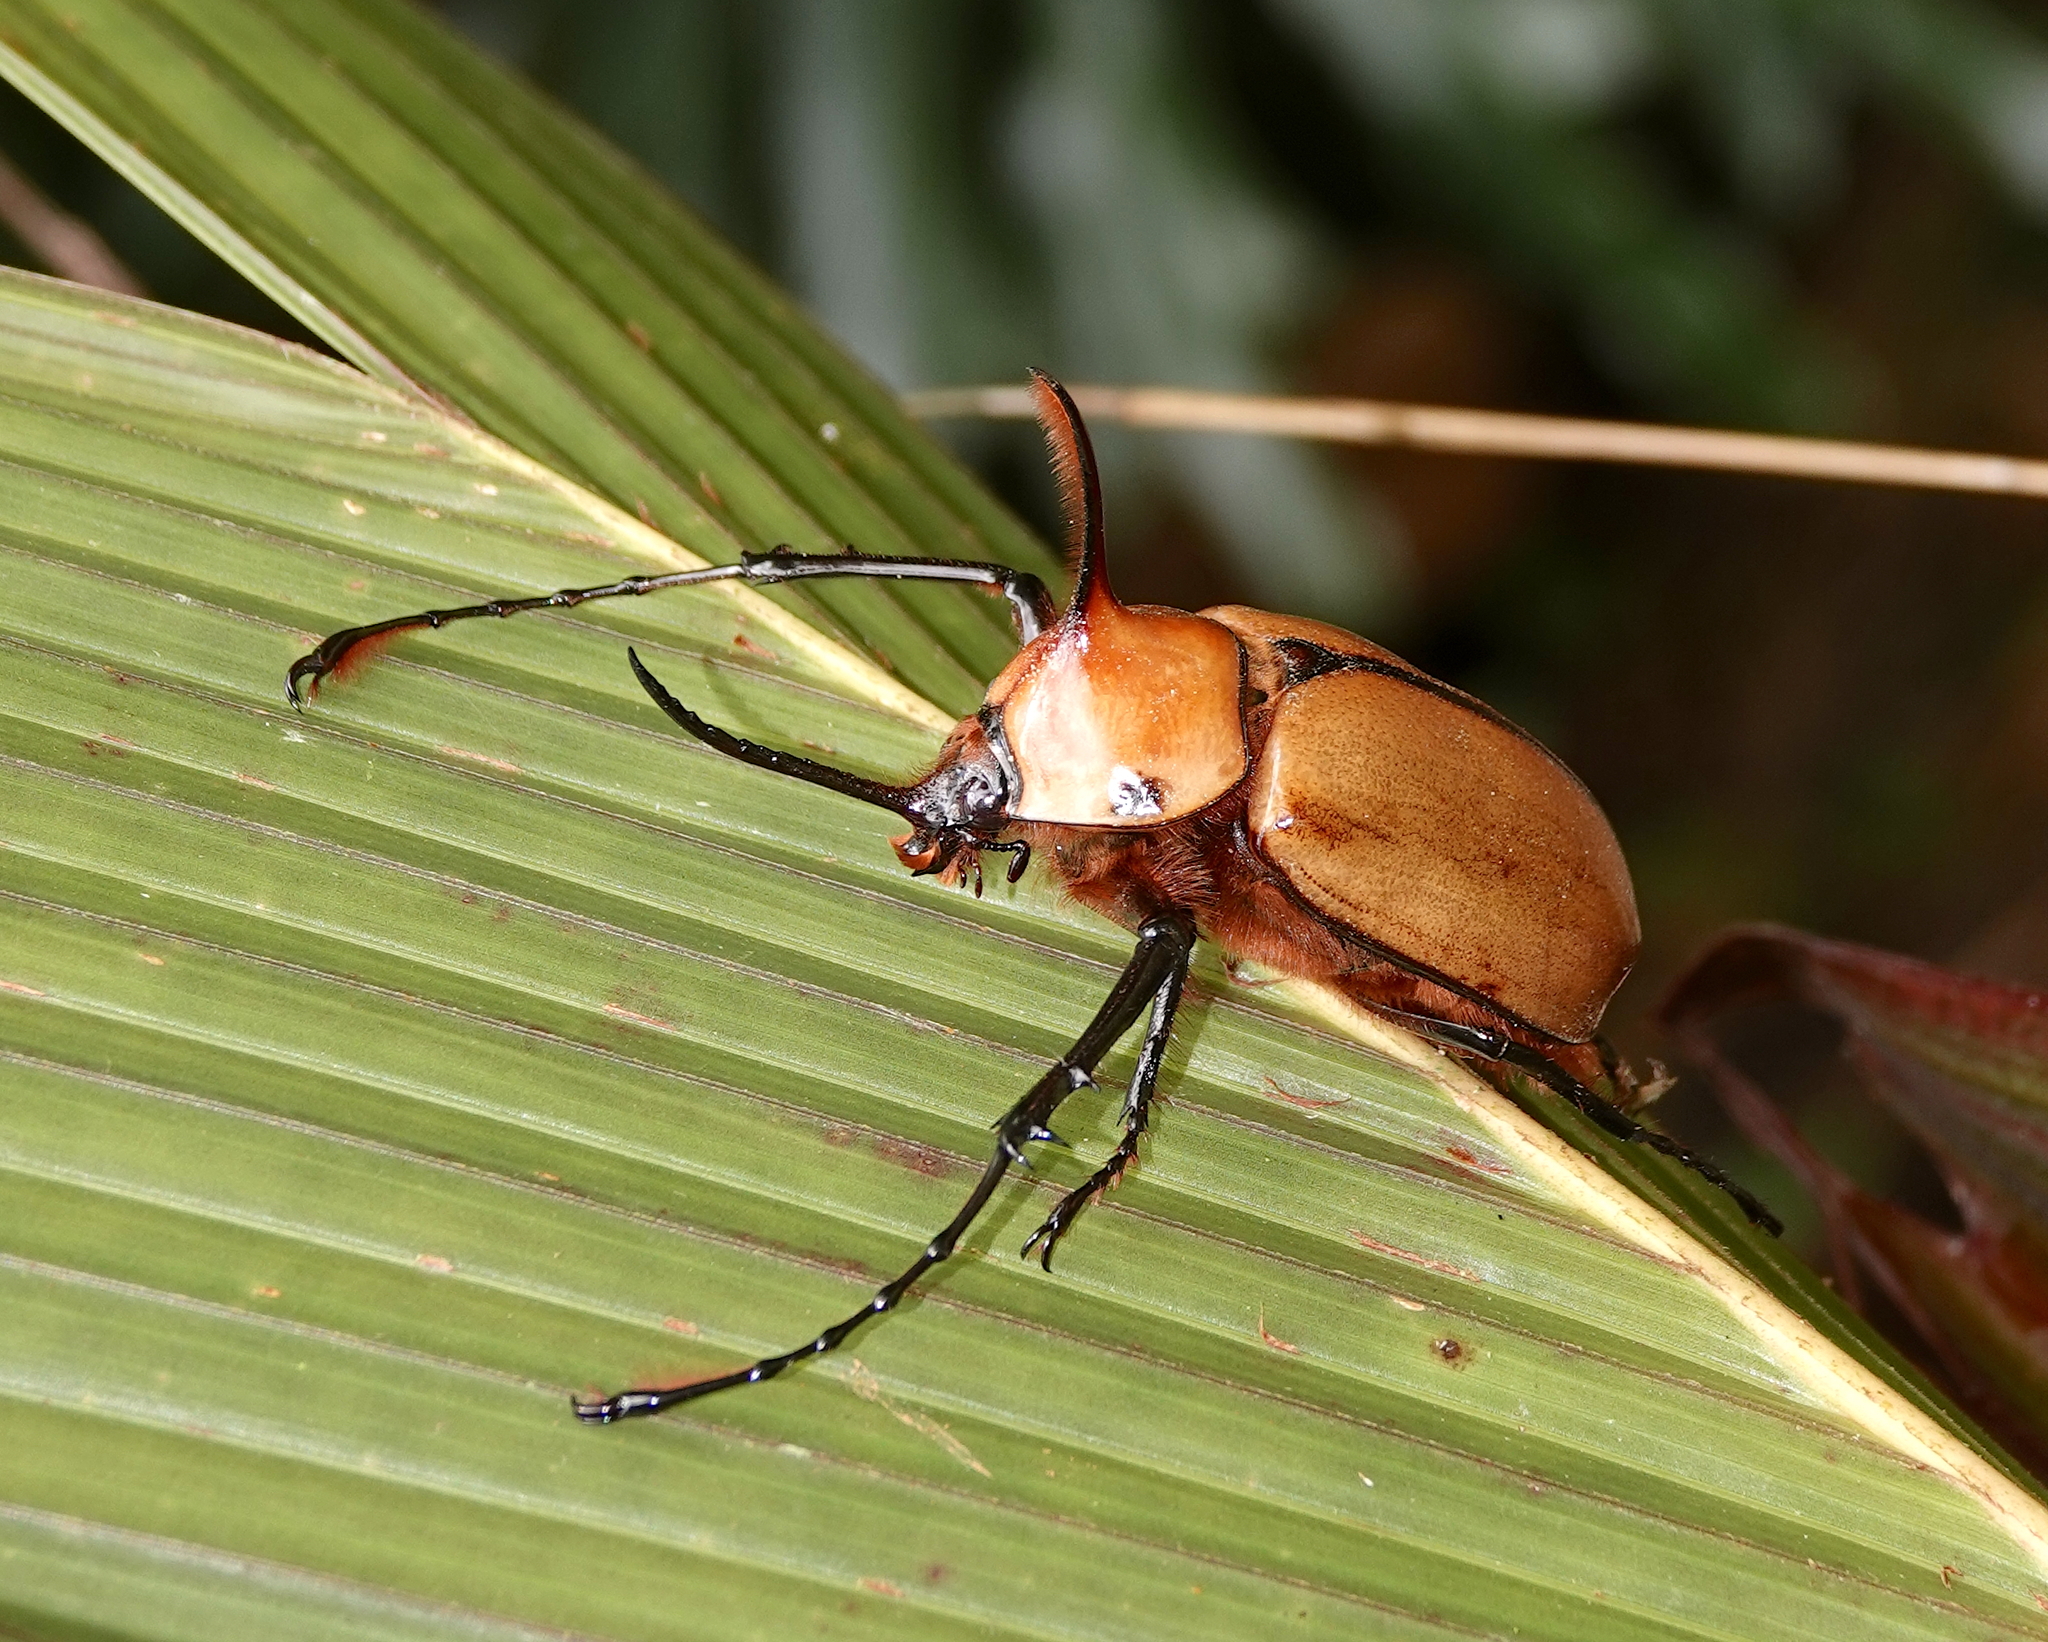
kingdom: Animalia
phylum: Arthropoda
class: Insecta
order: Coleoptera
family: Scarabaeidae
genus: Golofa
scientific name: Golofa porteri
